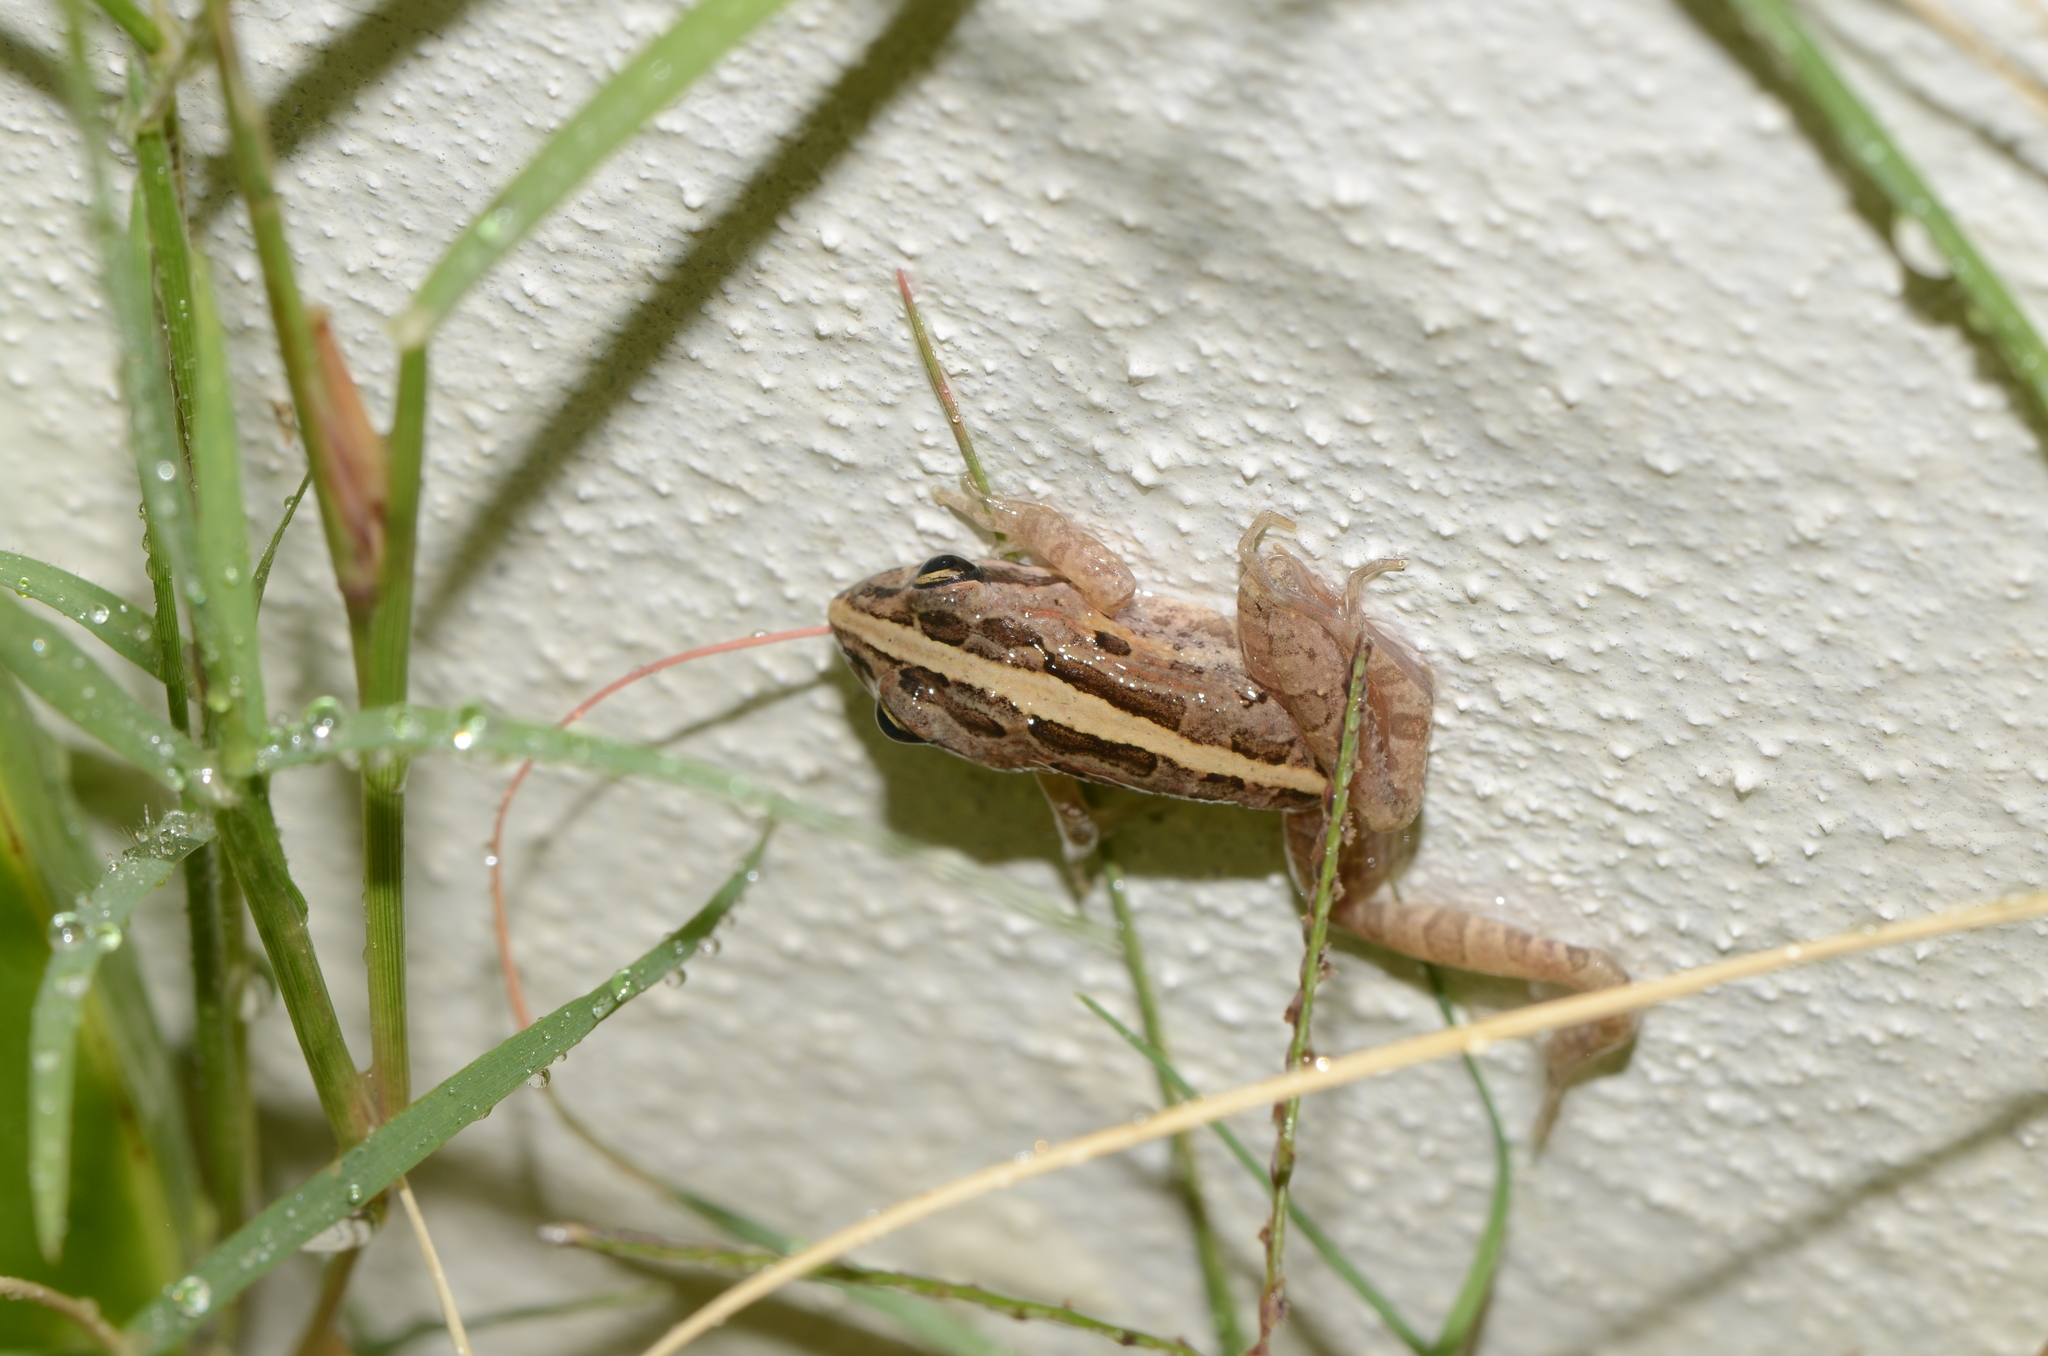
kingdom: Animalia
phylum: Chordata
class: Amphibia
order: Anura
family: Pyxicephalidae
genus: Strongylopus
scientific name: Strongylopus grayii
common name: Gray's stream frog
